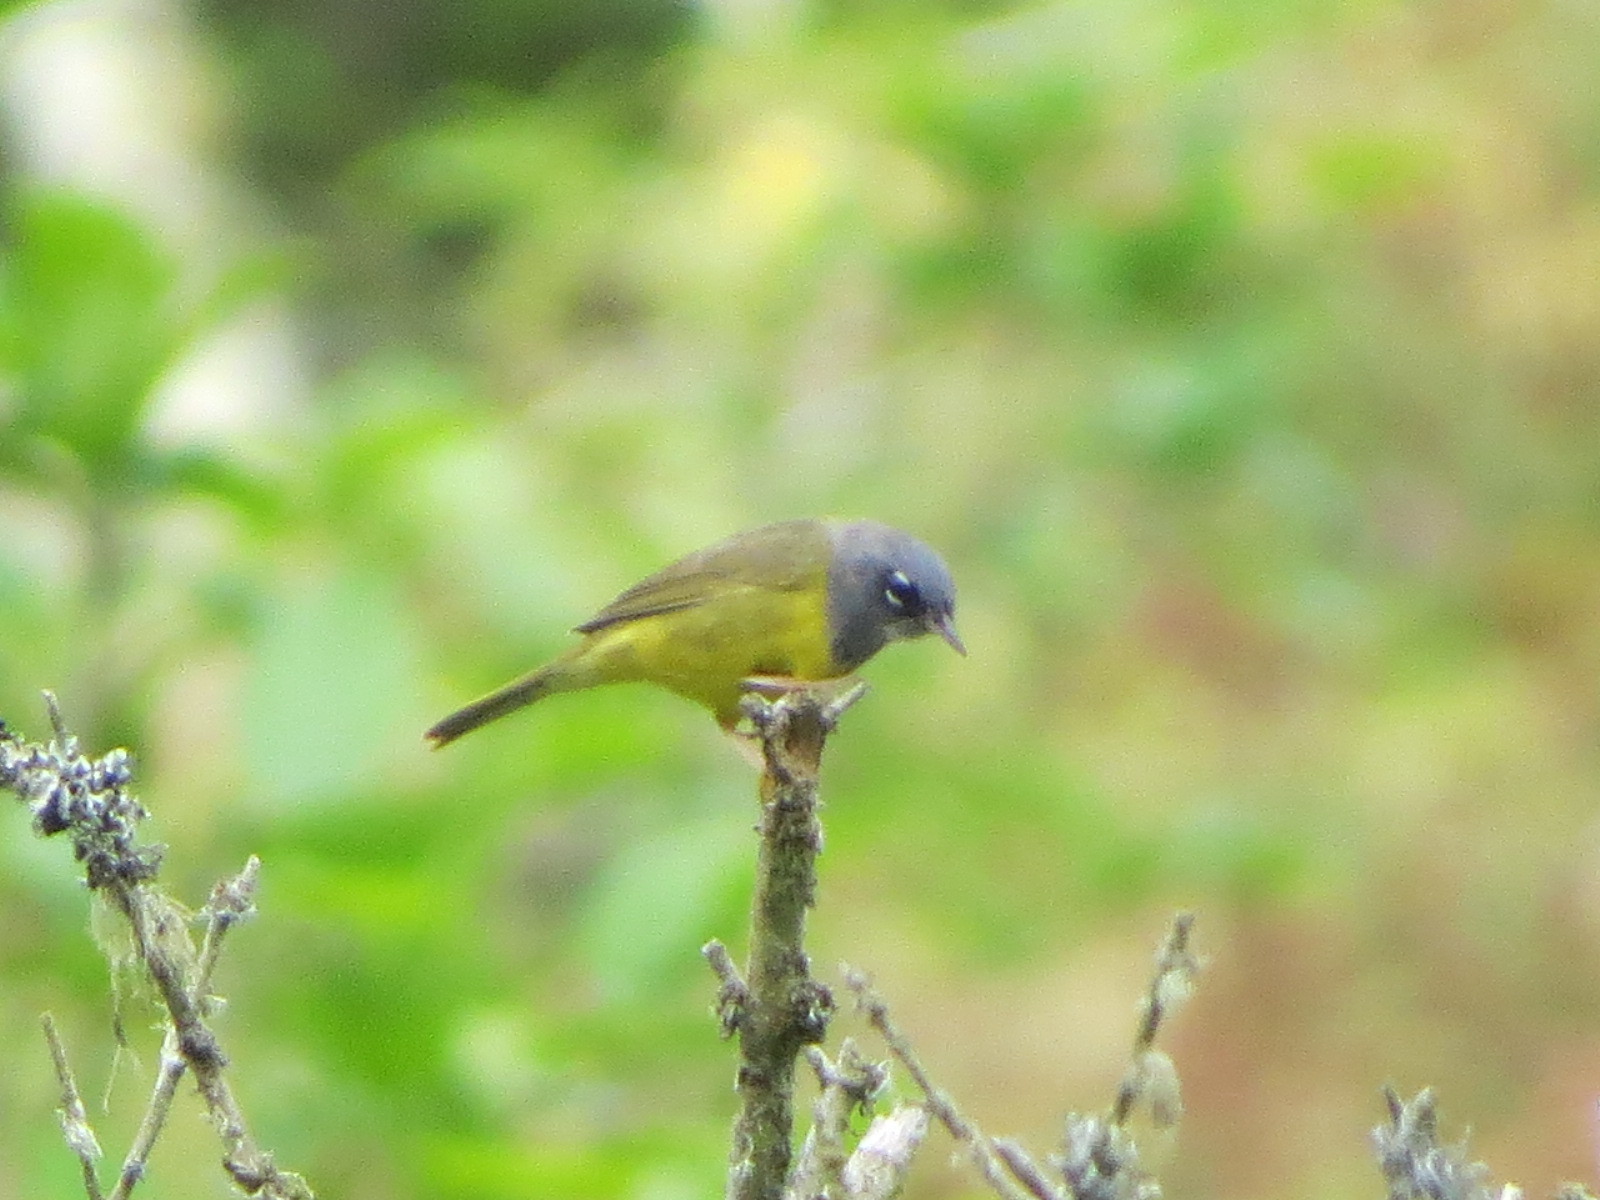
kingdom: Animalia
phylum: Chordata
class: Aves
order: Passeriformes
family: Parulidae
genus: Geothlypis
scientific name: Geothlypis tolmiei
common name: Macgillivray's warbler
